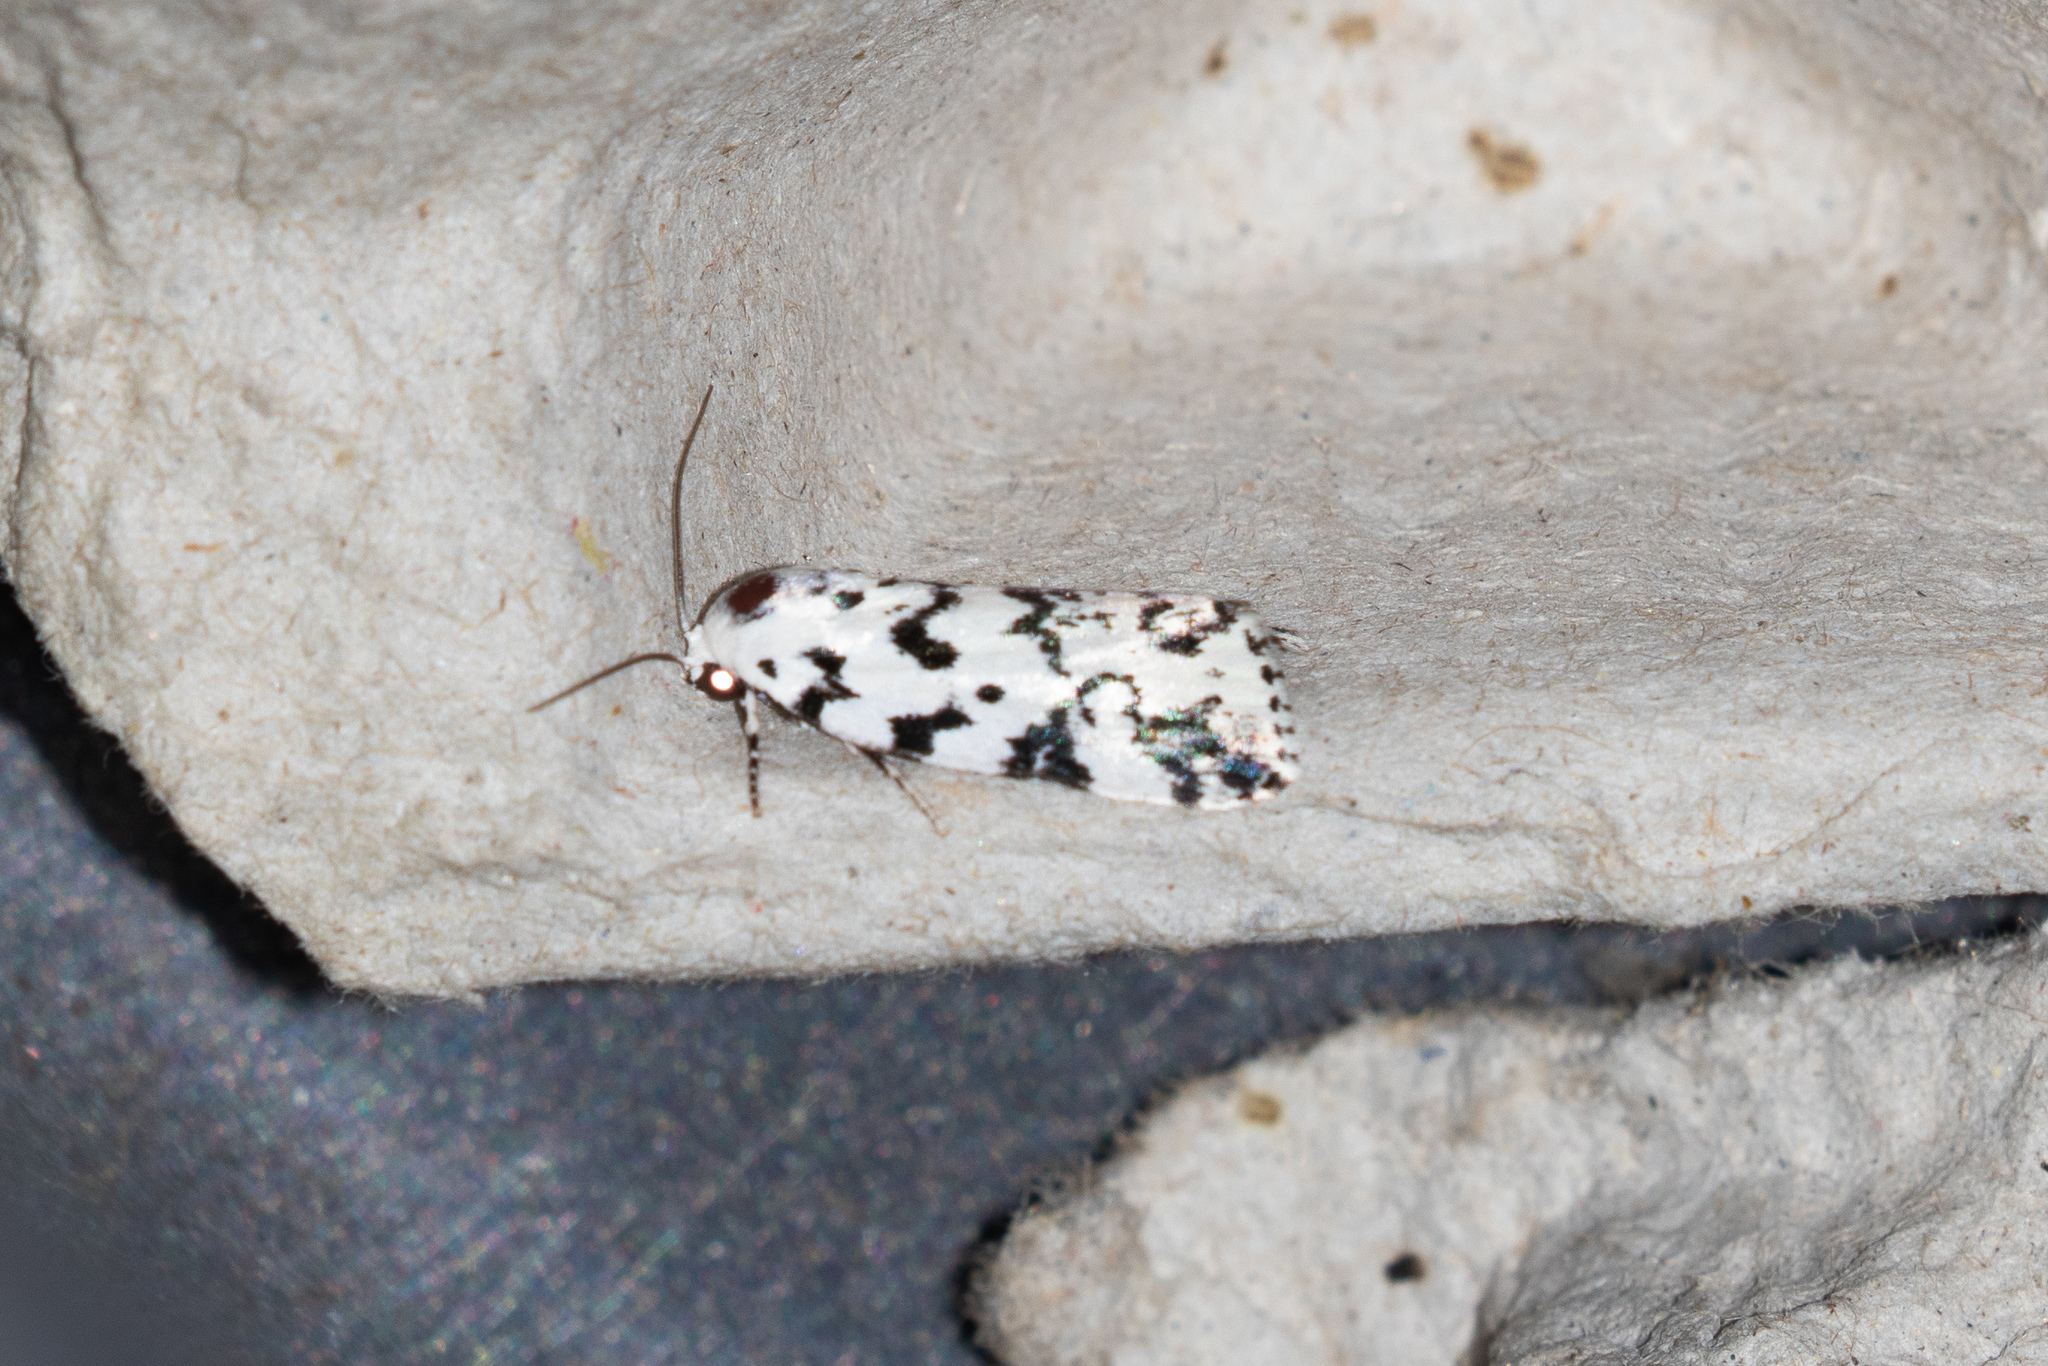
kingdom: Animalia
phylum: Arthropoda
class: Insecta
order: Lepidoptera
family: Noctuidae
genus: Polygrammate
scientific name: Polygrammate hebraeicum
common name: Hebrew moth
